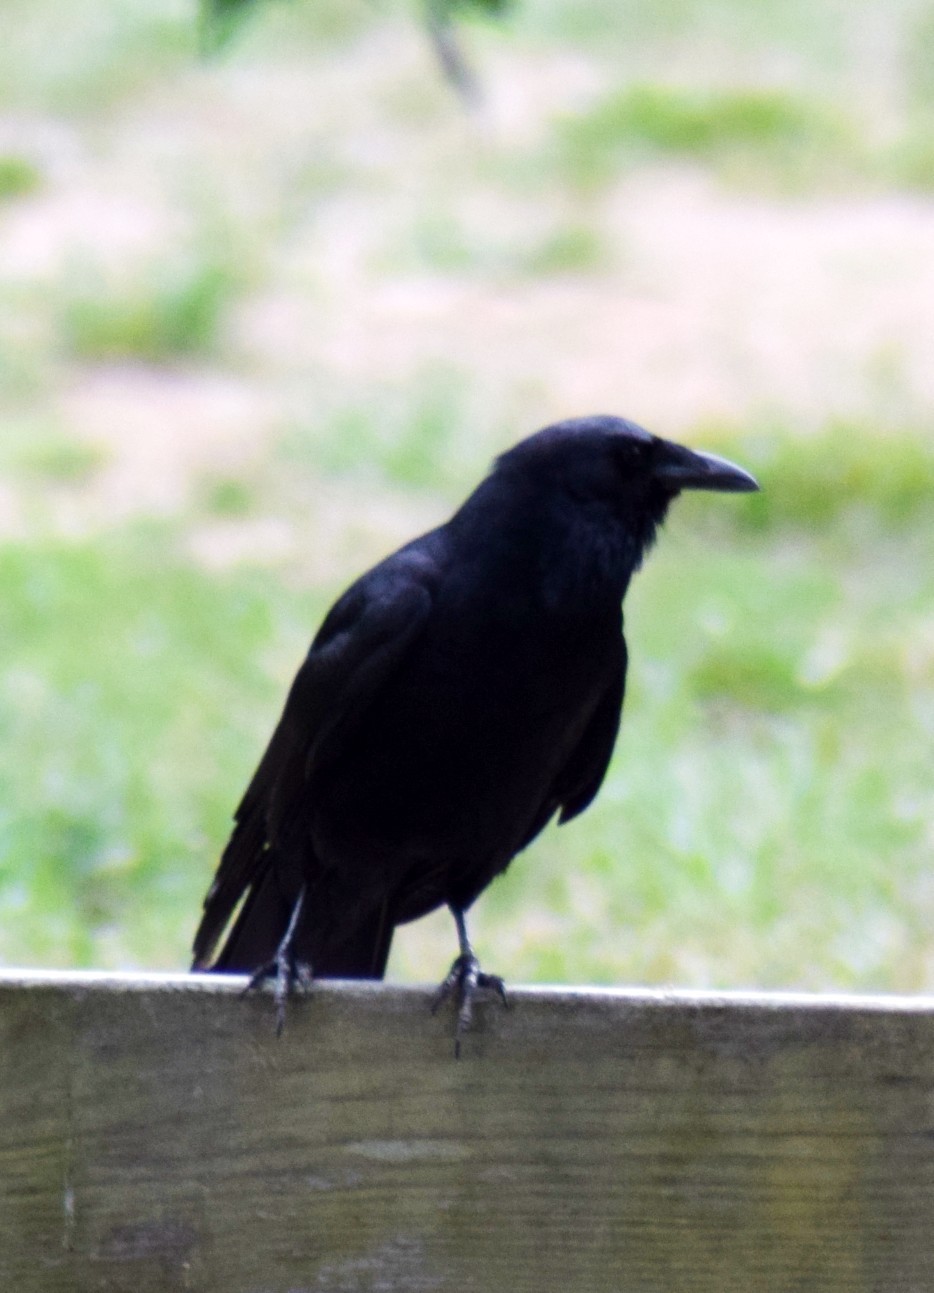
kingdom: Animalia
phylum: Chordata
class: Aves
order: Passeriformes
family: Corvidae
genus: Corvus
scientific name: Corvus ossifragus
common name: Fish crow
